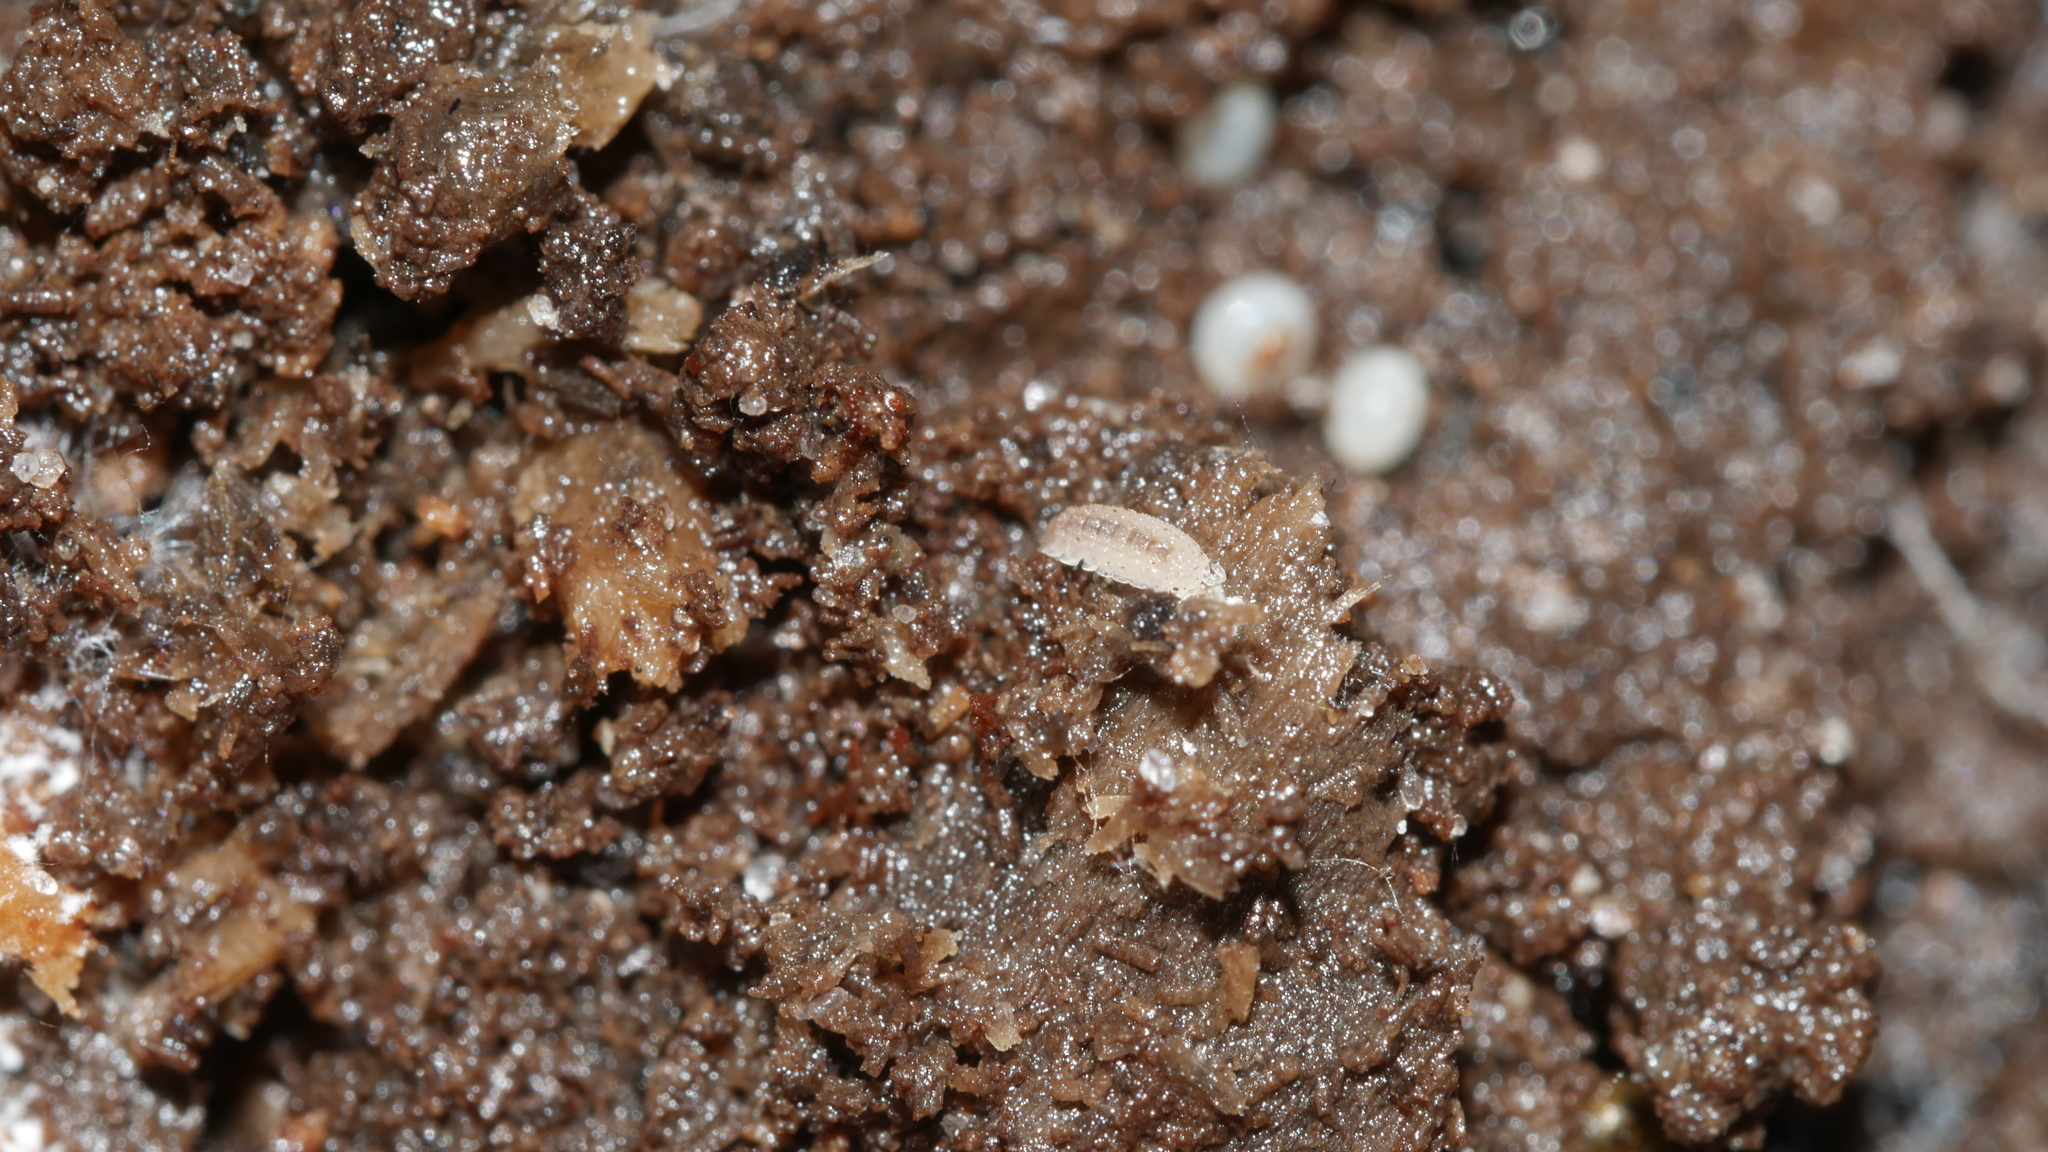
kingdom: Animalia
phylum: Arthropoda
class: Malacostraca
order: Isopoda
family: Trichoniscidae
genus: Haplophthalmus
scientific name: Haplophthalmus danicus
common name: Pillbug
